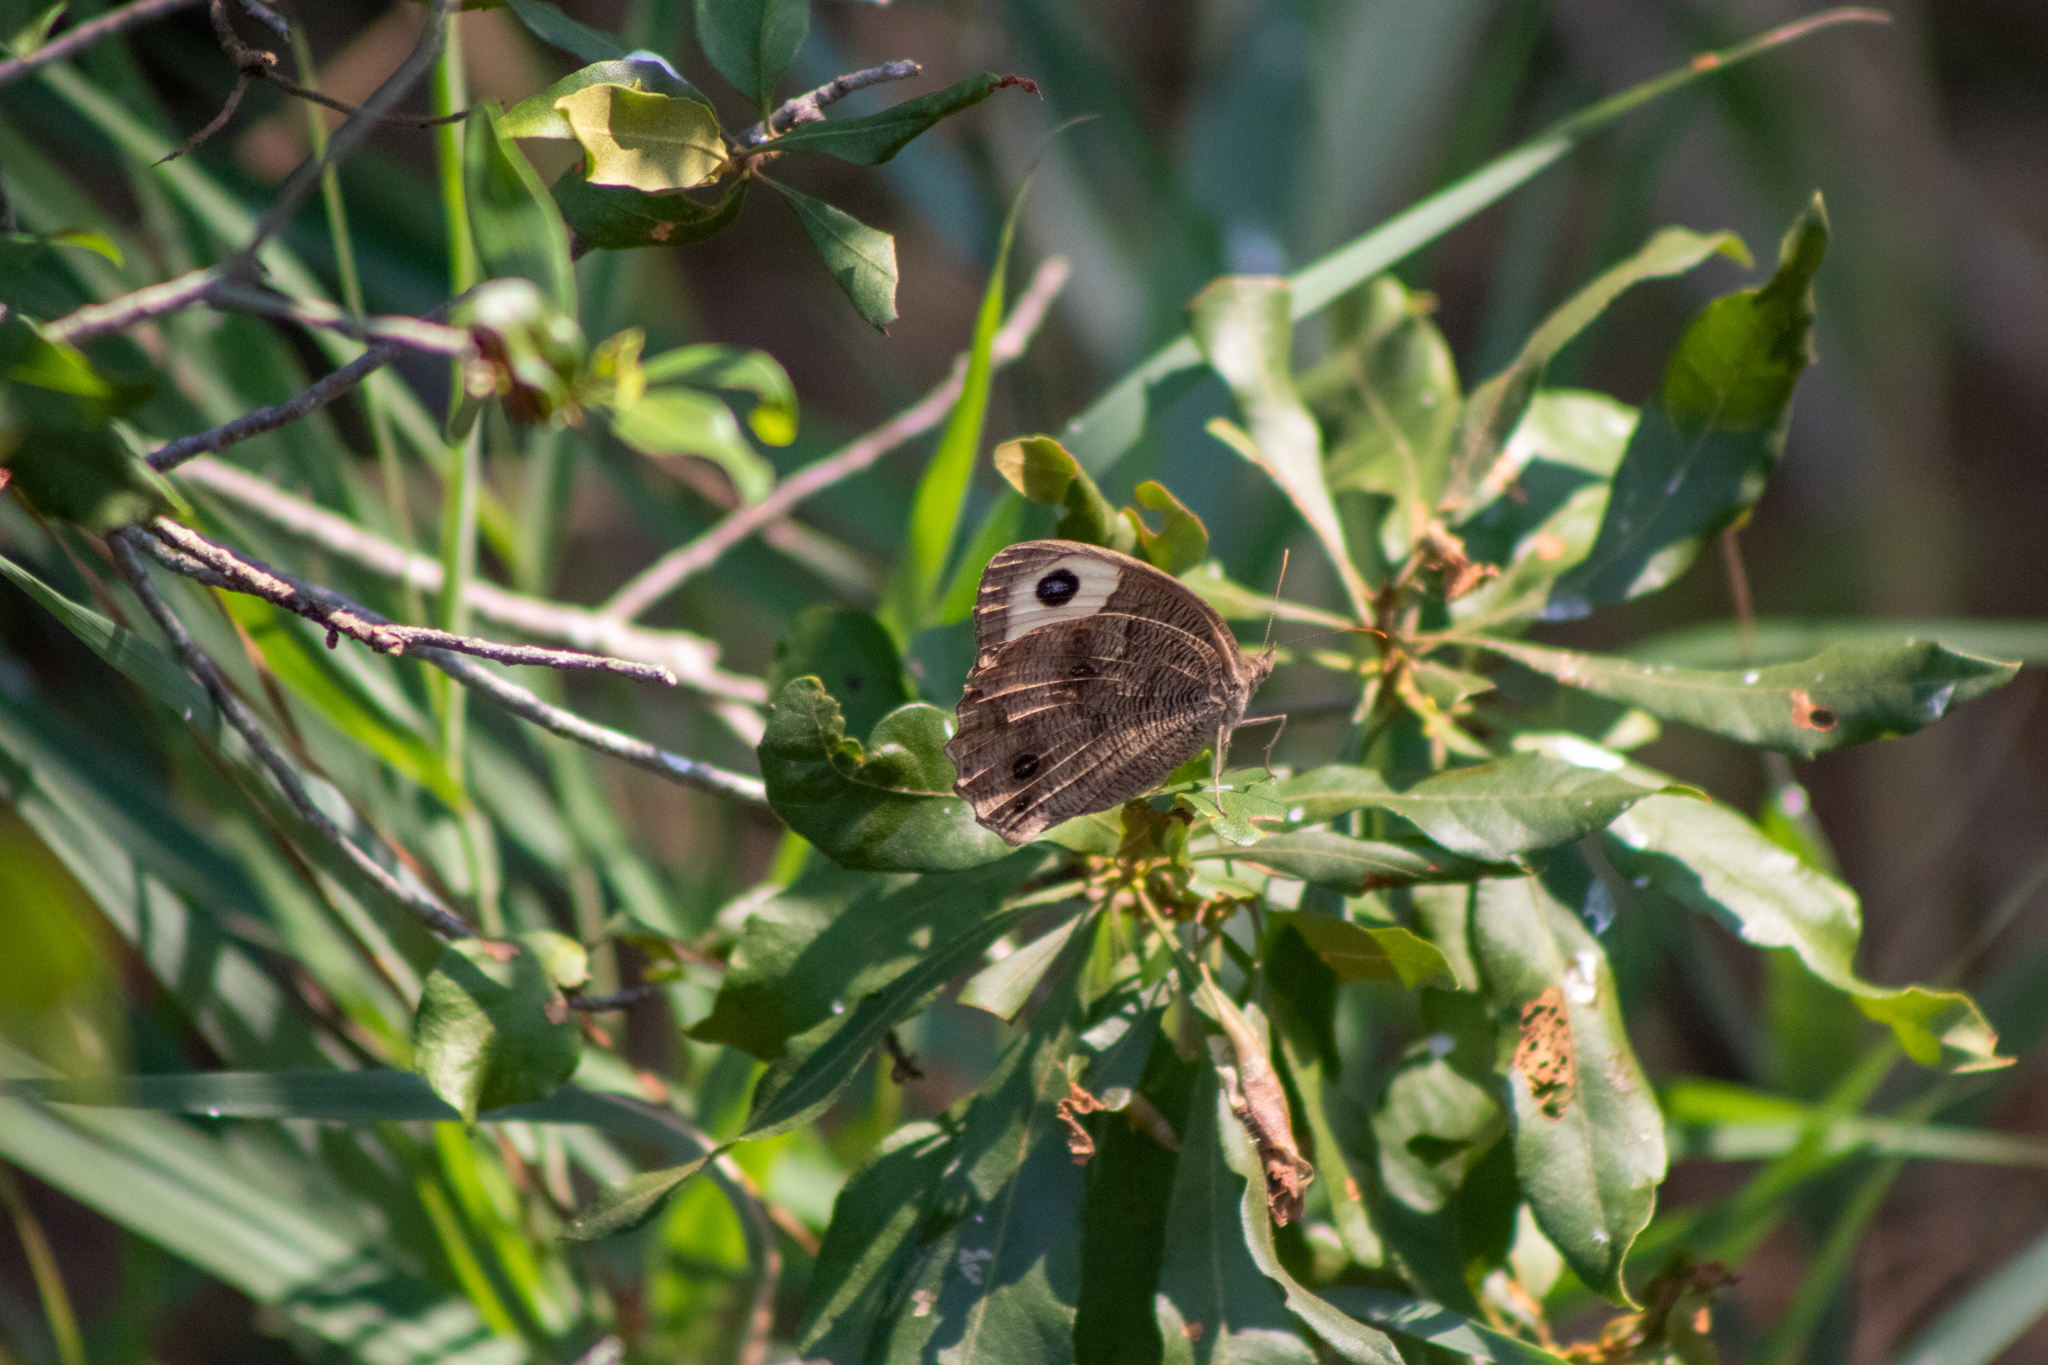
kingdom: Animalia
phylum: Arthropoda
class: Insecta
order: Lepidoptera
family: Nymphalidae
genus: Cercyonis
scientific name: Cercyonis pegala
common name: Common wood-nymph
